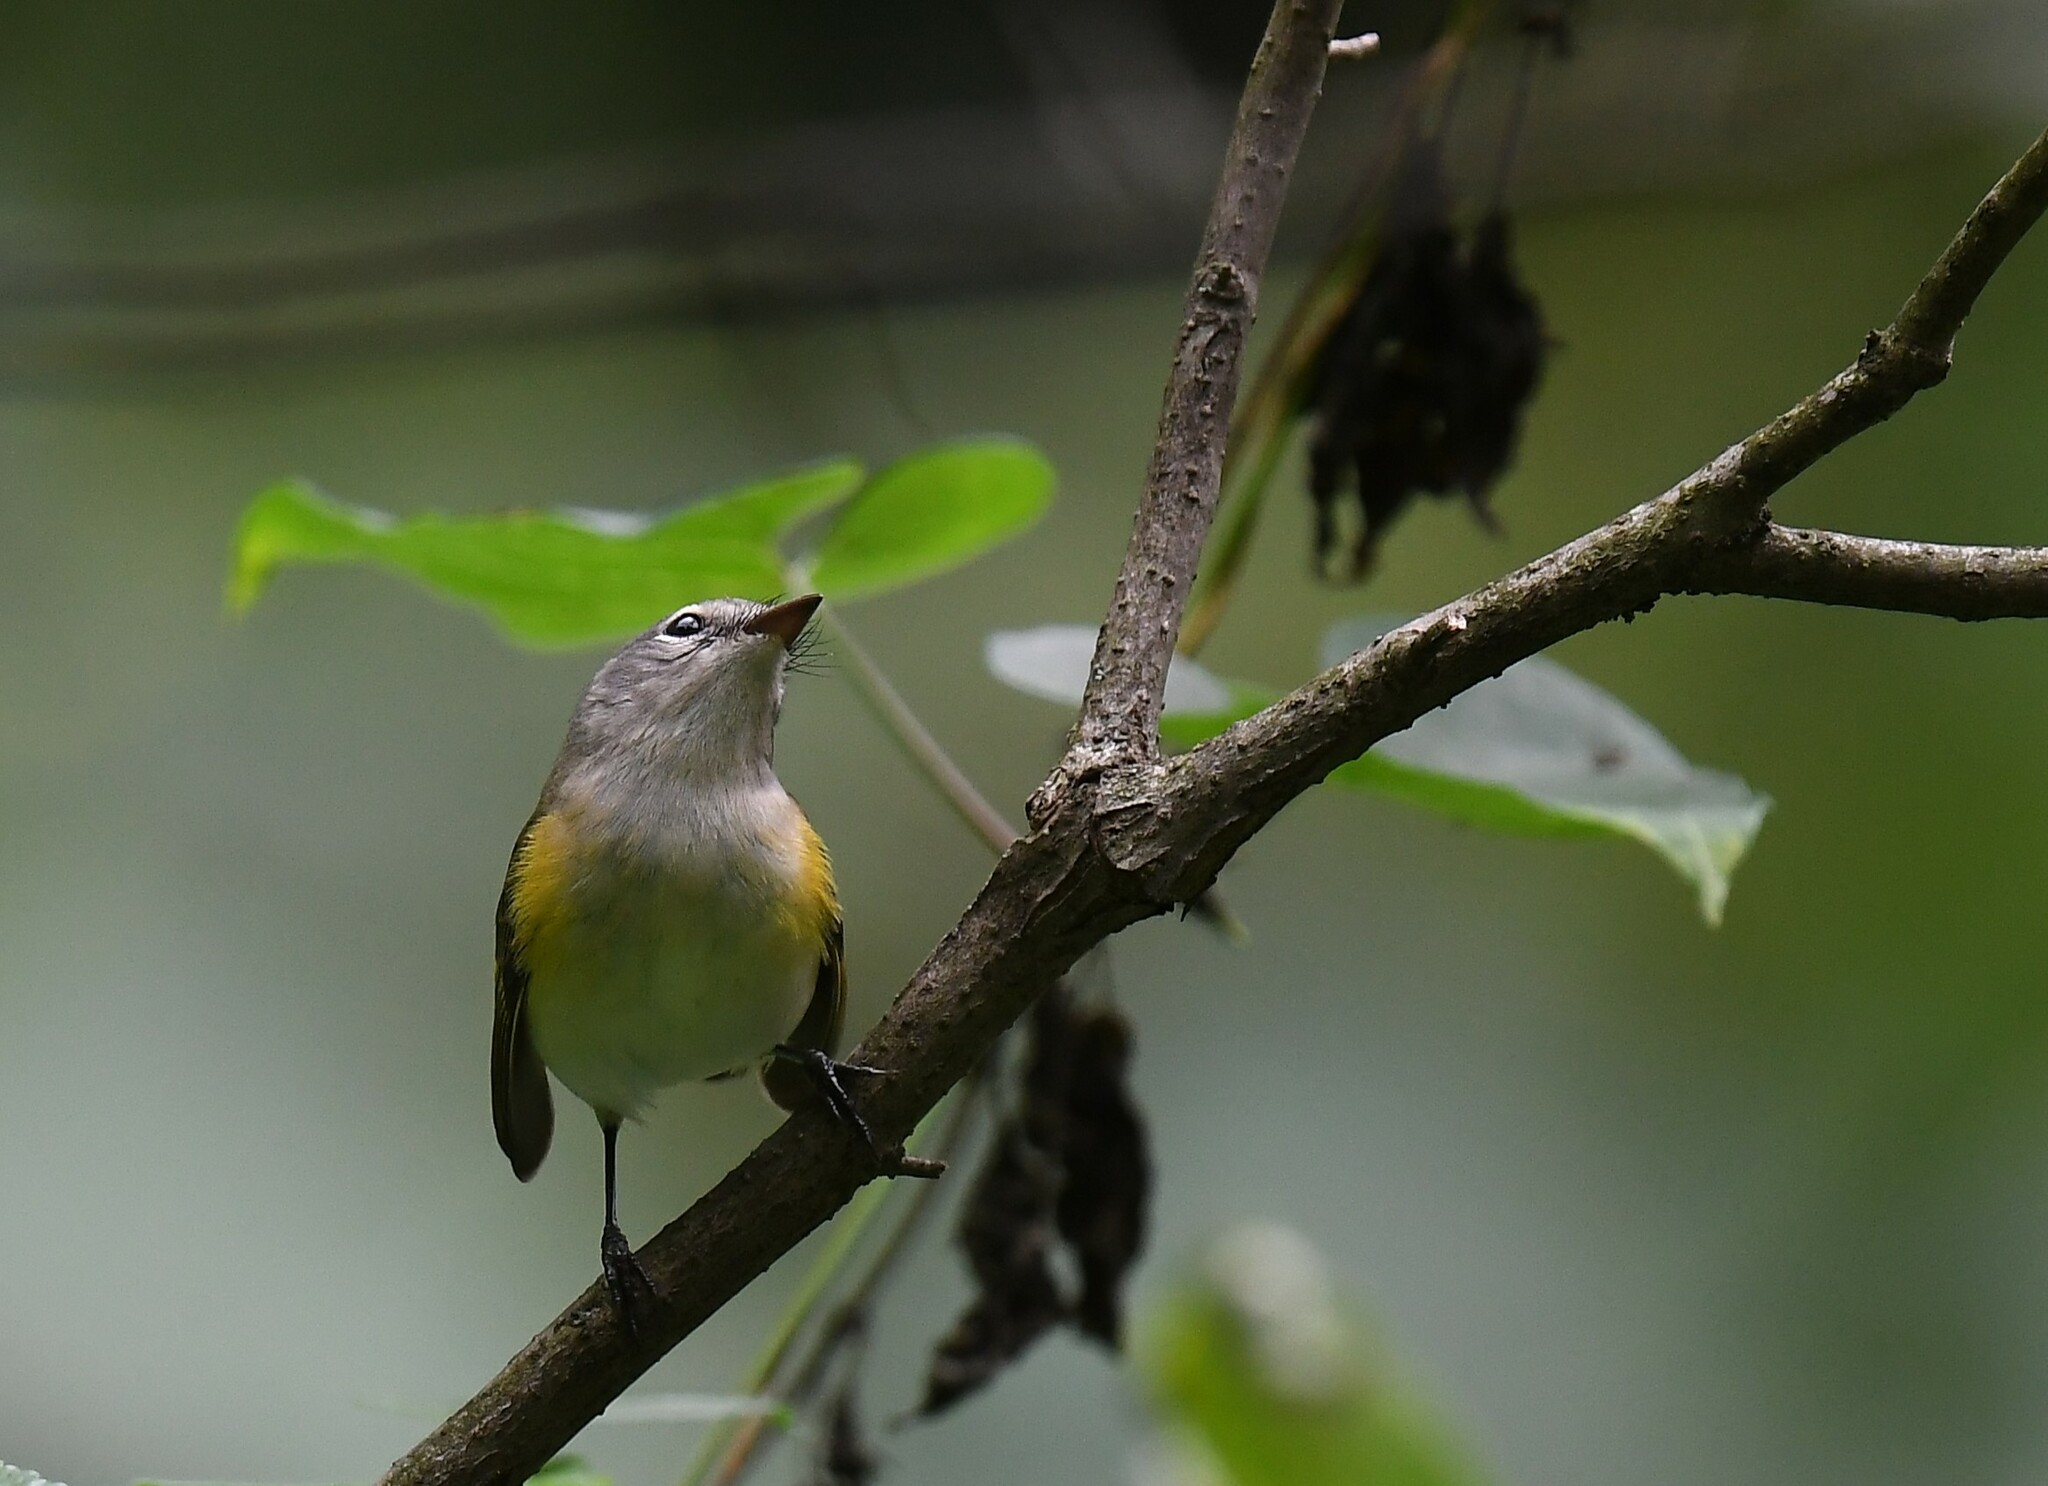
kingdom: Animalia
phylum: Chordata
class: Aves
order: Passeriformes
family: Parulidae
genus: Setophaga
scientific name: Setophaga ruticilla
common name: American redstart
